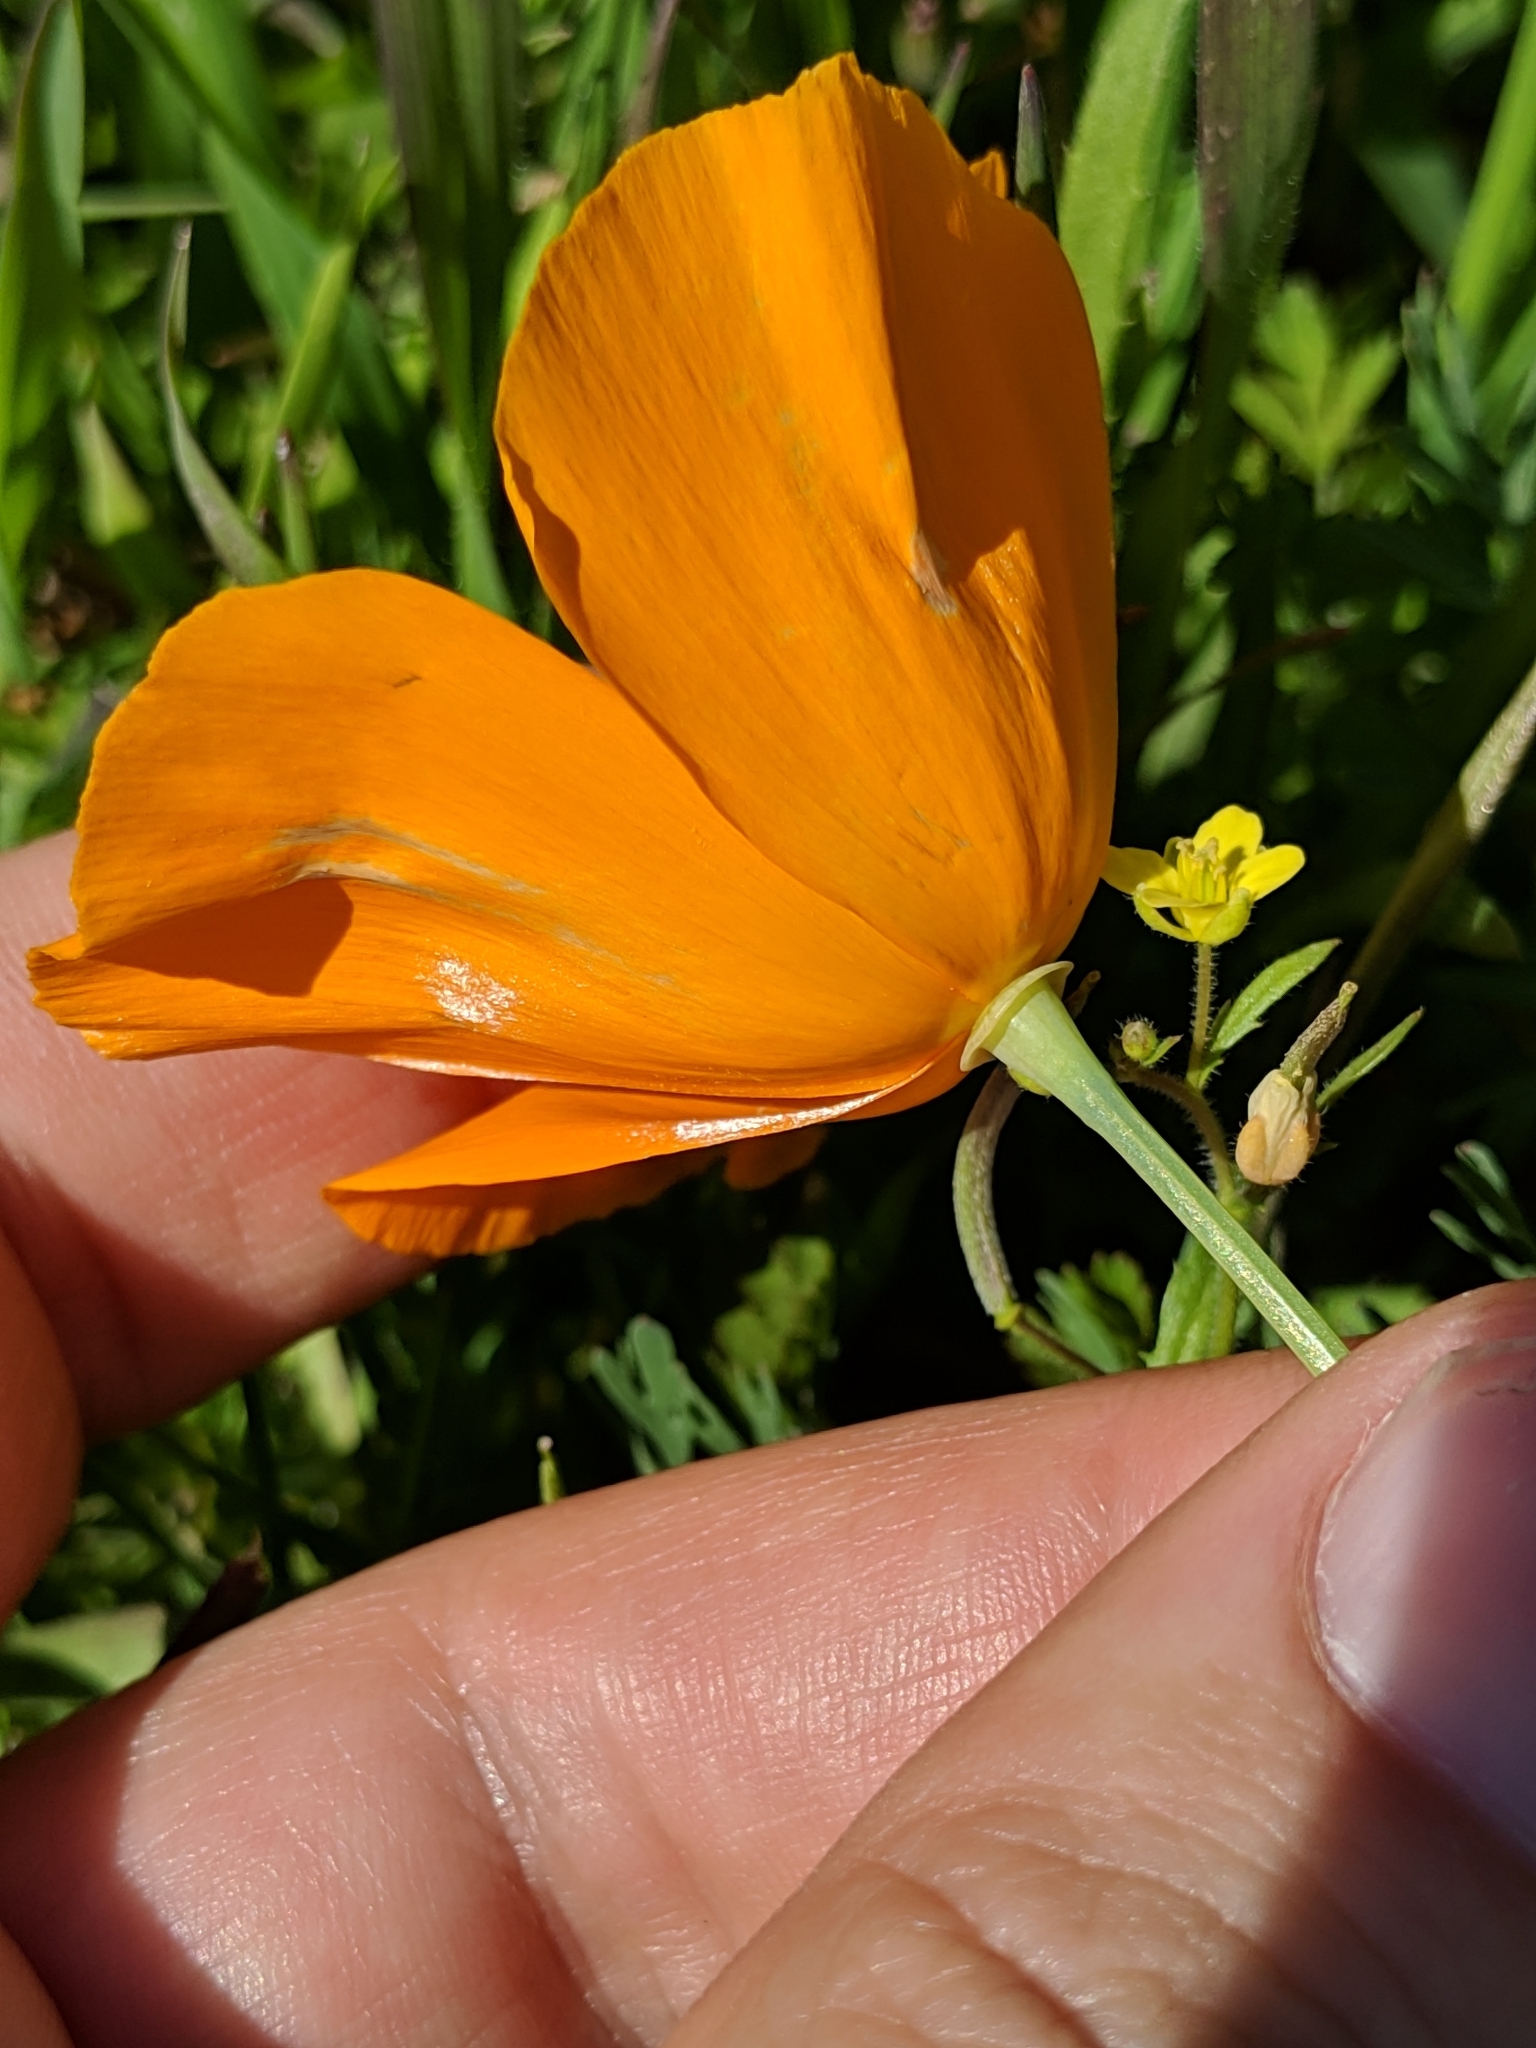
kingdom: Plantae
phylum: Tracheophyta
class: Magnoliopsida
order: Ranunculales
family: Papaveraceae
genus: Eschscholzia
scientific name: Eschscholzia californica
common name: California poppy
